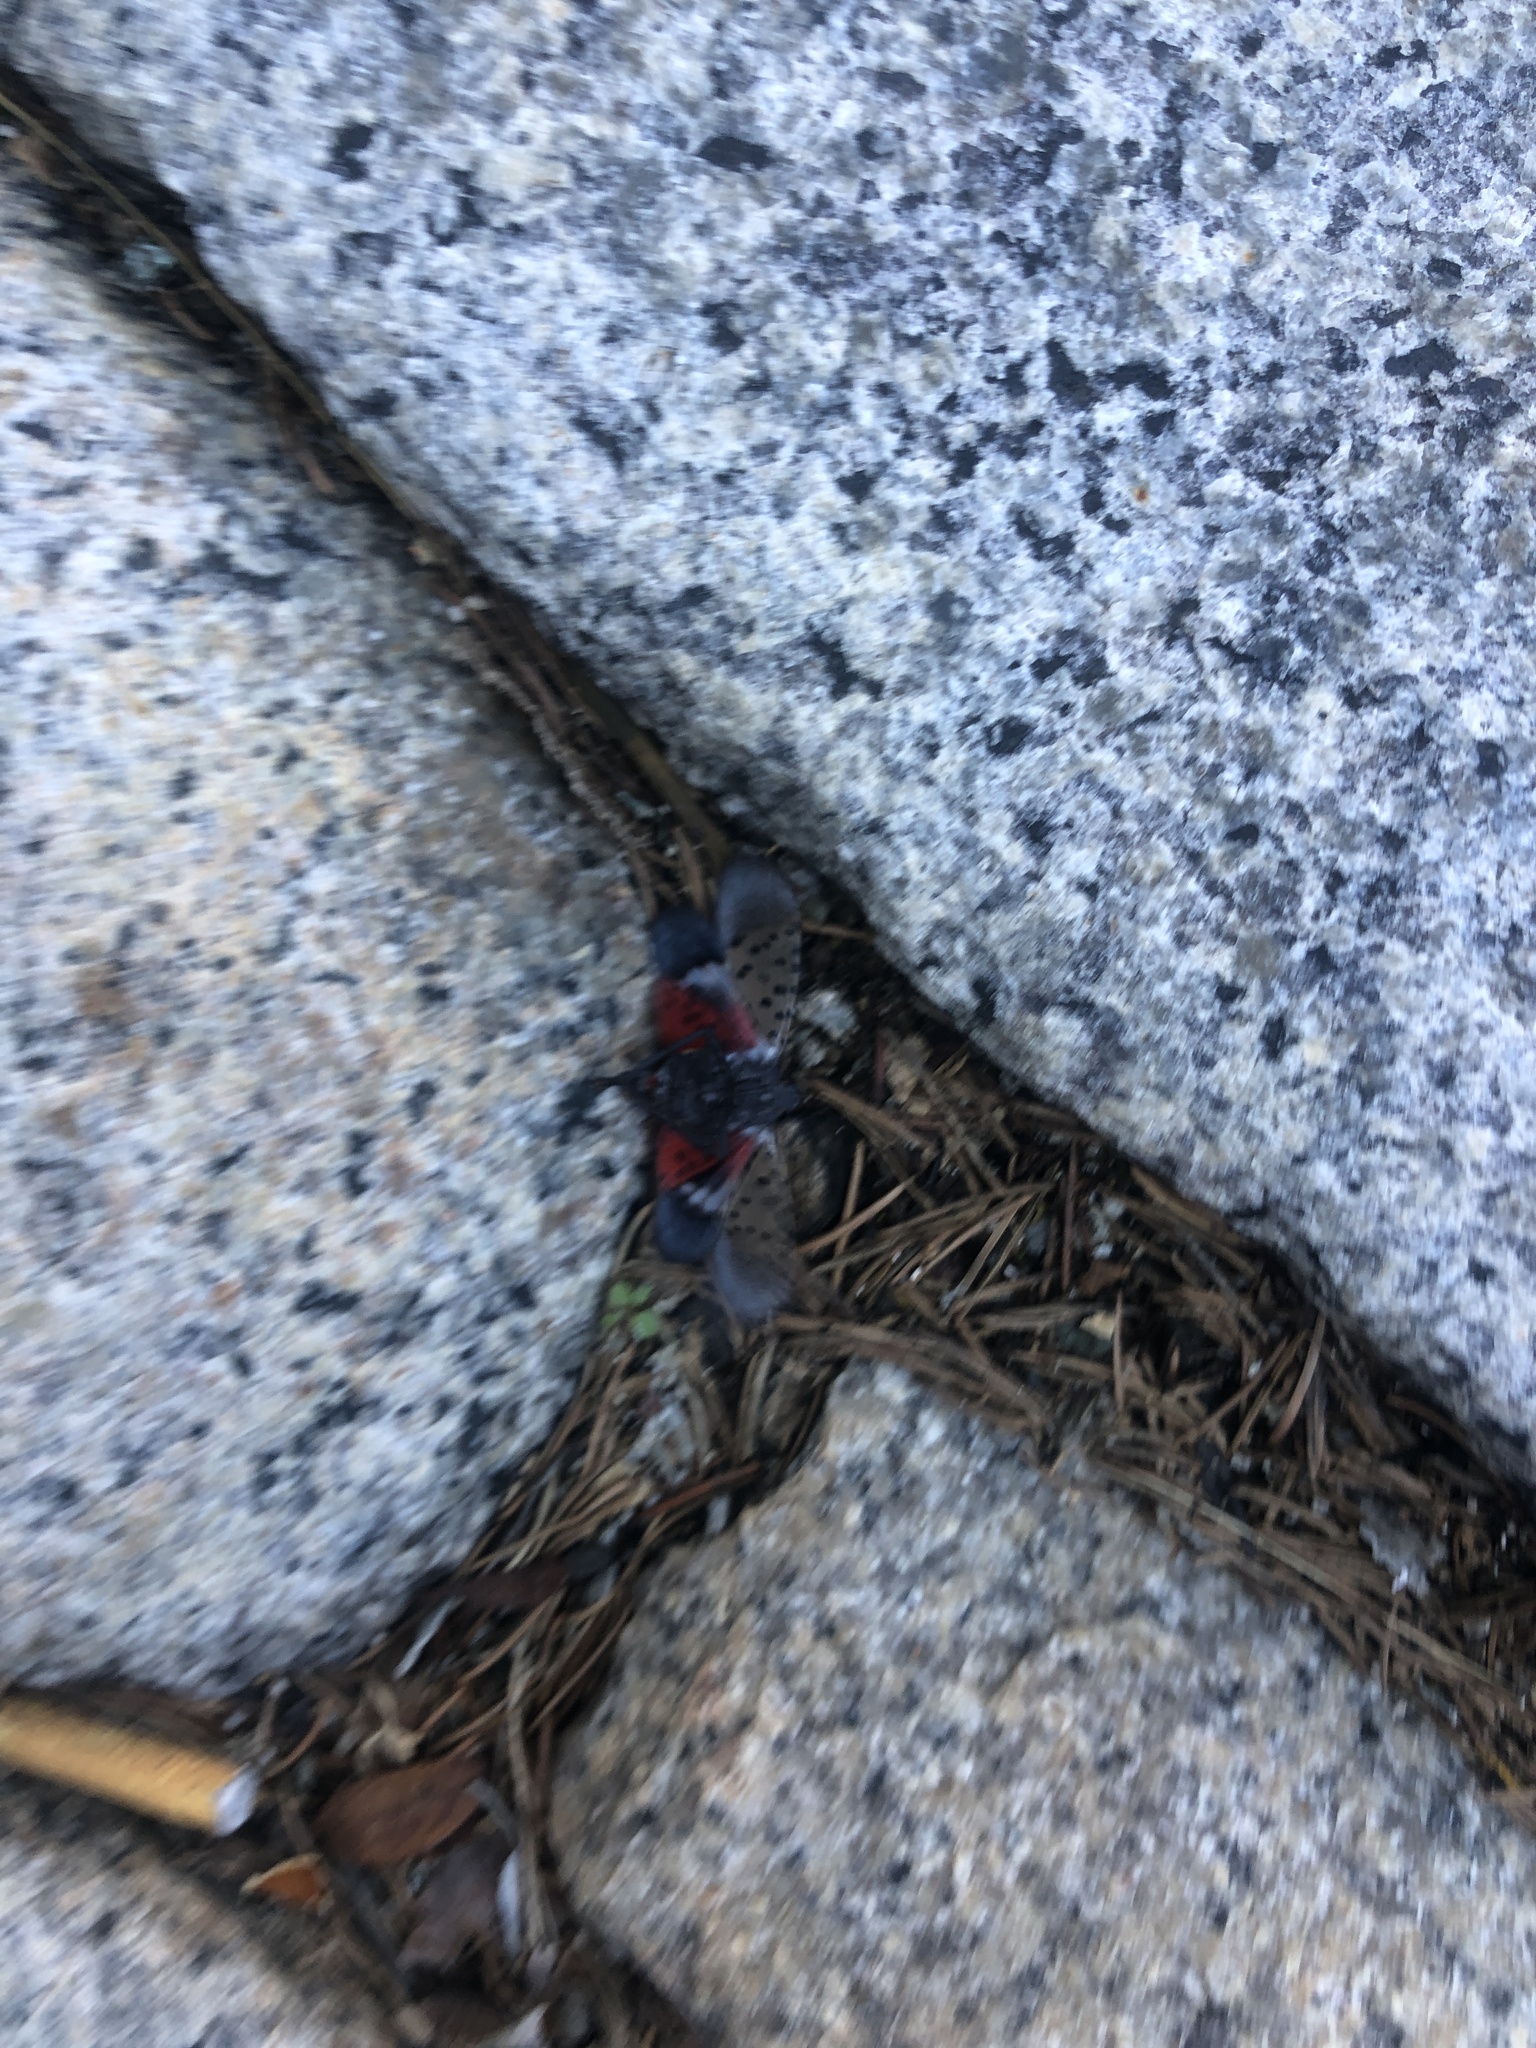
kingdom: Animalia
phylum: Arthropoda
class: Insecta
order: Hemiptera
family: Fulgoridae
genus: Lycorma
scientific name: Lycorma delicatula
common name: Spotted lanternfly
